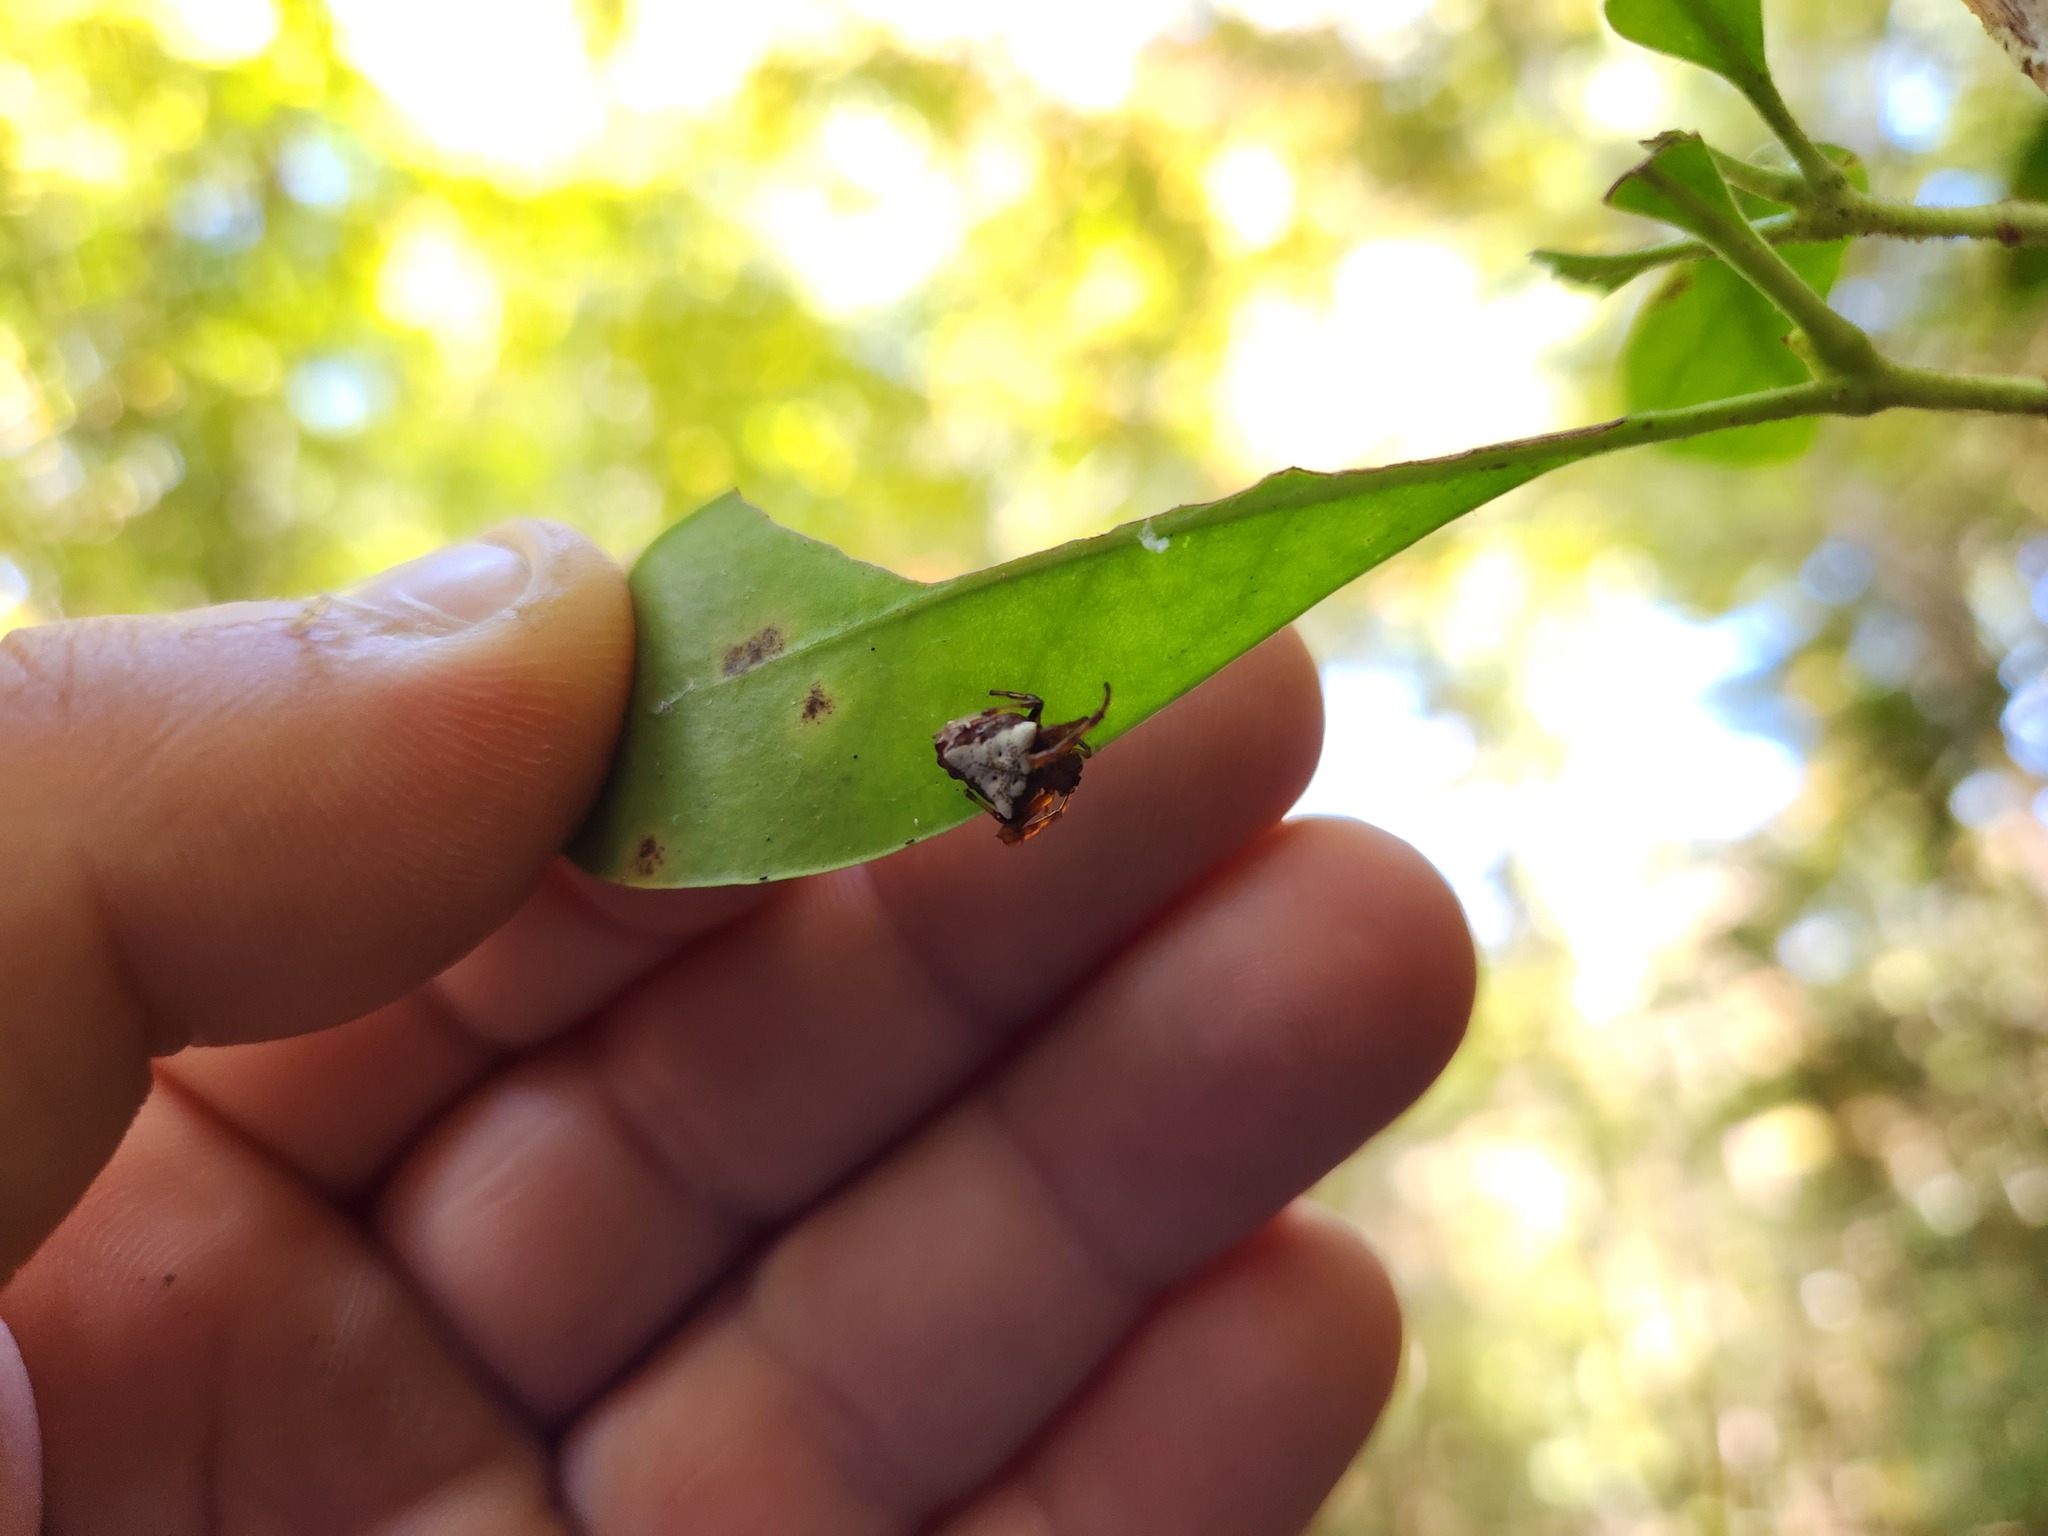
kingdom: Animalia
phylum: Arthropoda
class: Arachnida
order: Araneae
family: Araneidae
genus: Verrucosa
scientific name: Verrucosa arenata
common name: Orb weavers
